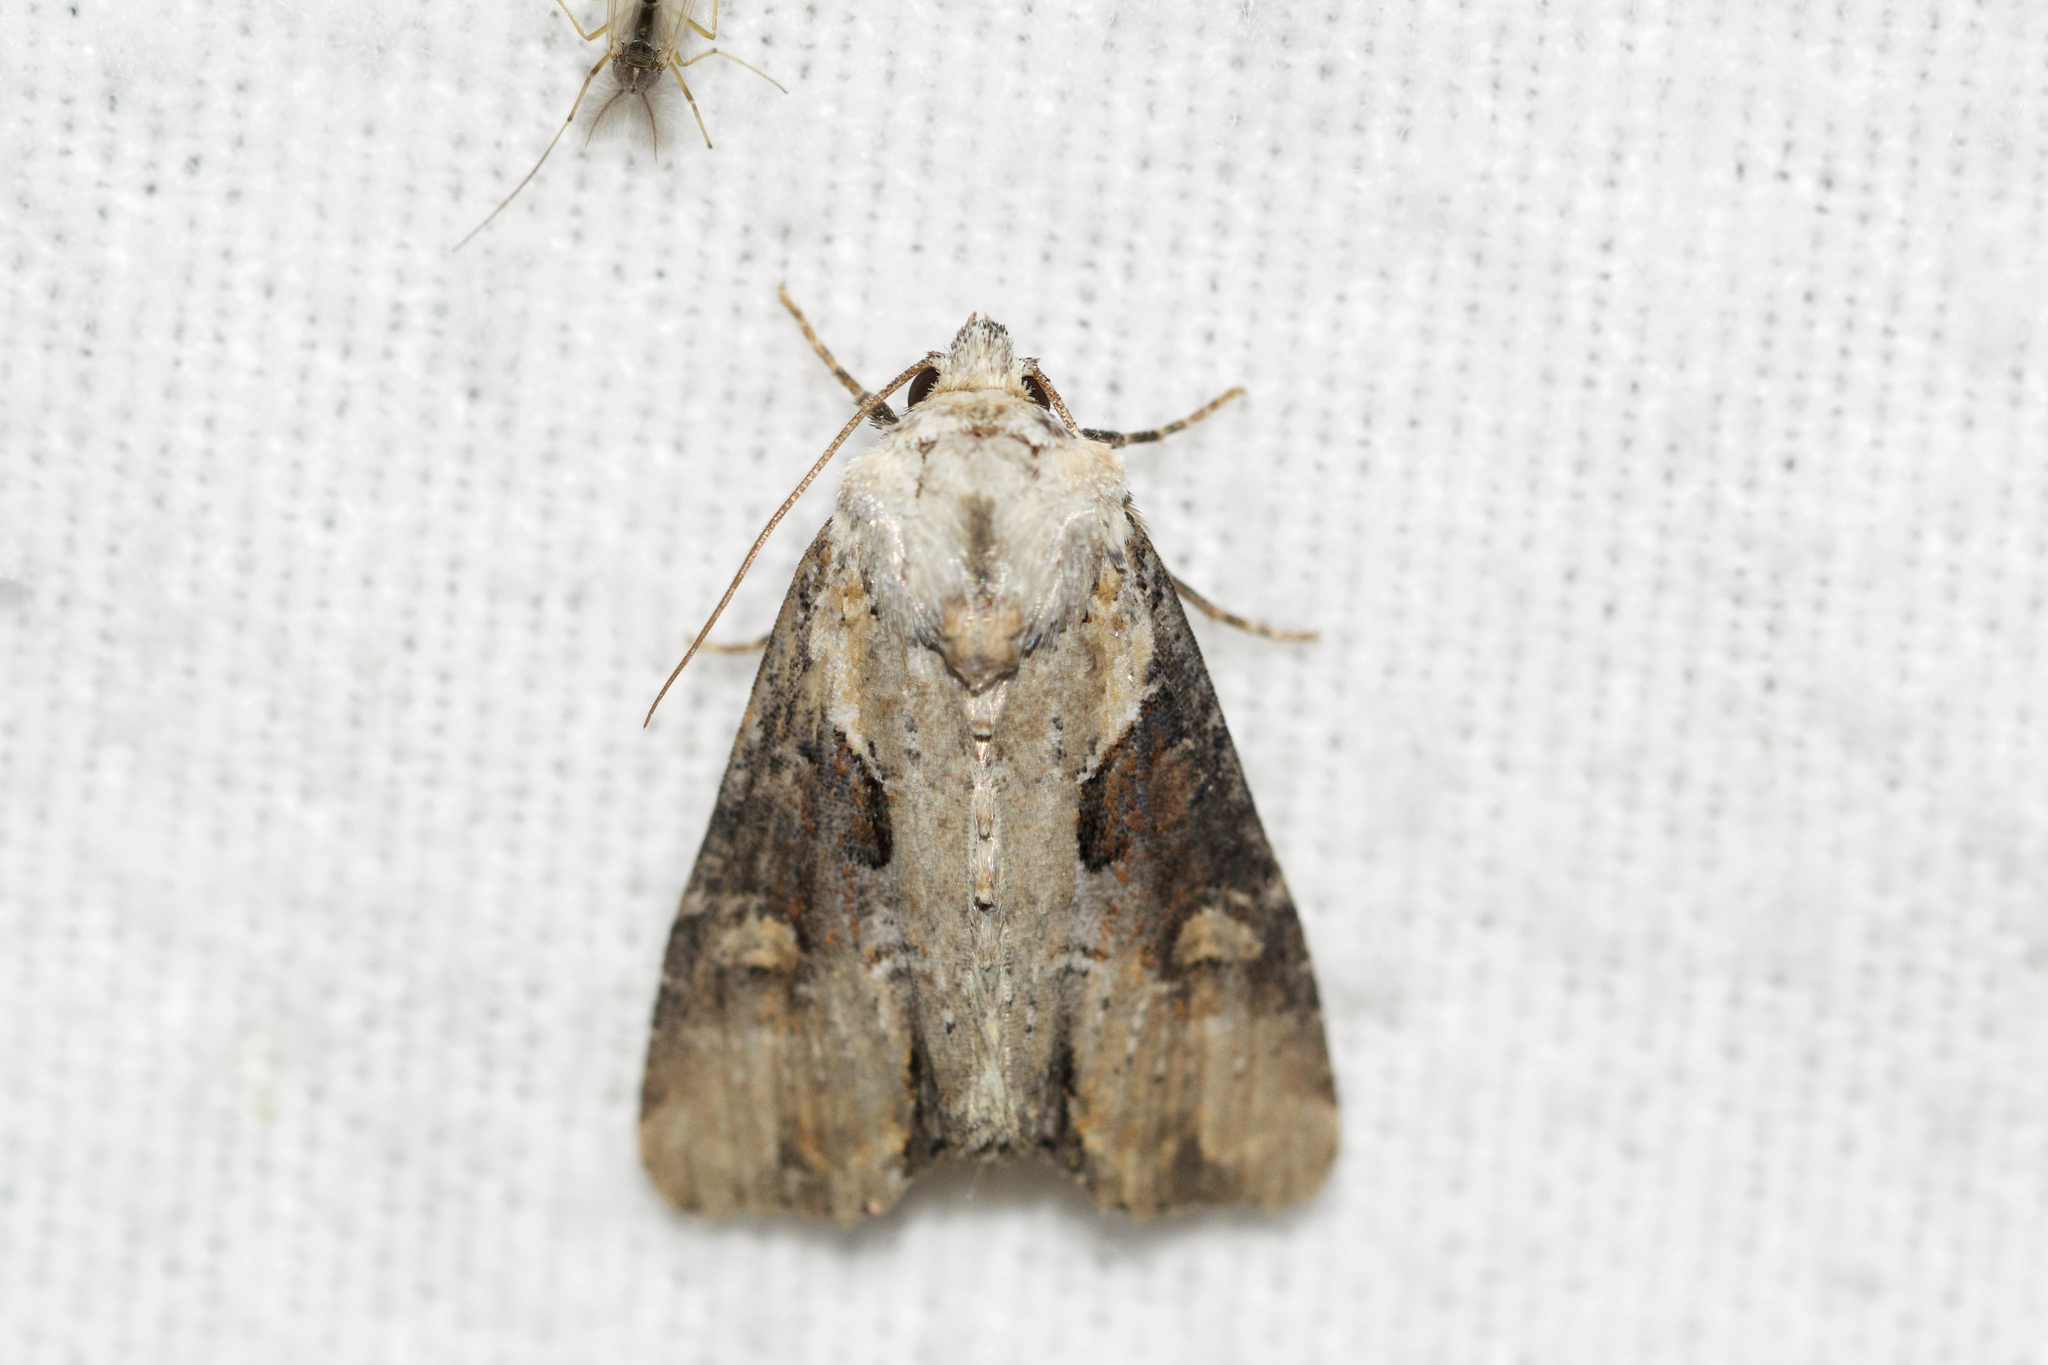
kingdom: Animalia
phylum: Arthropoda
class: Insecta
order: Lepidoptera
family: Noctuidae
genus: Lateroligia
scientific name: Lateroligia ophiogramma
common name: Double lobed
